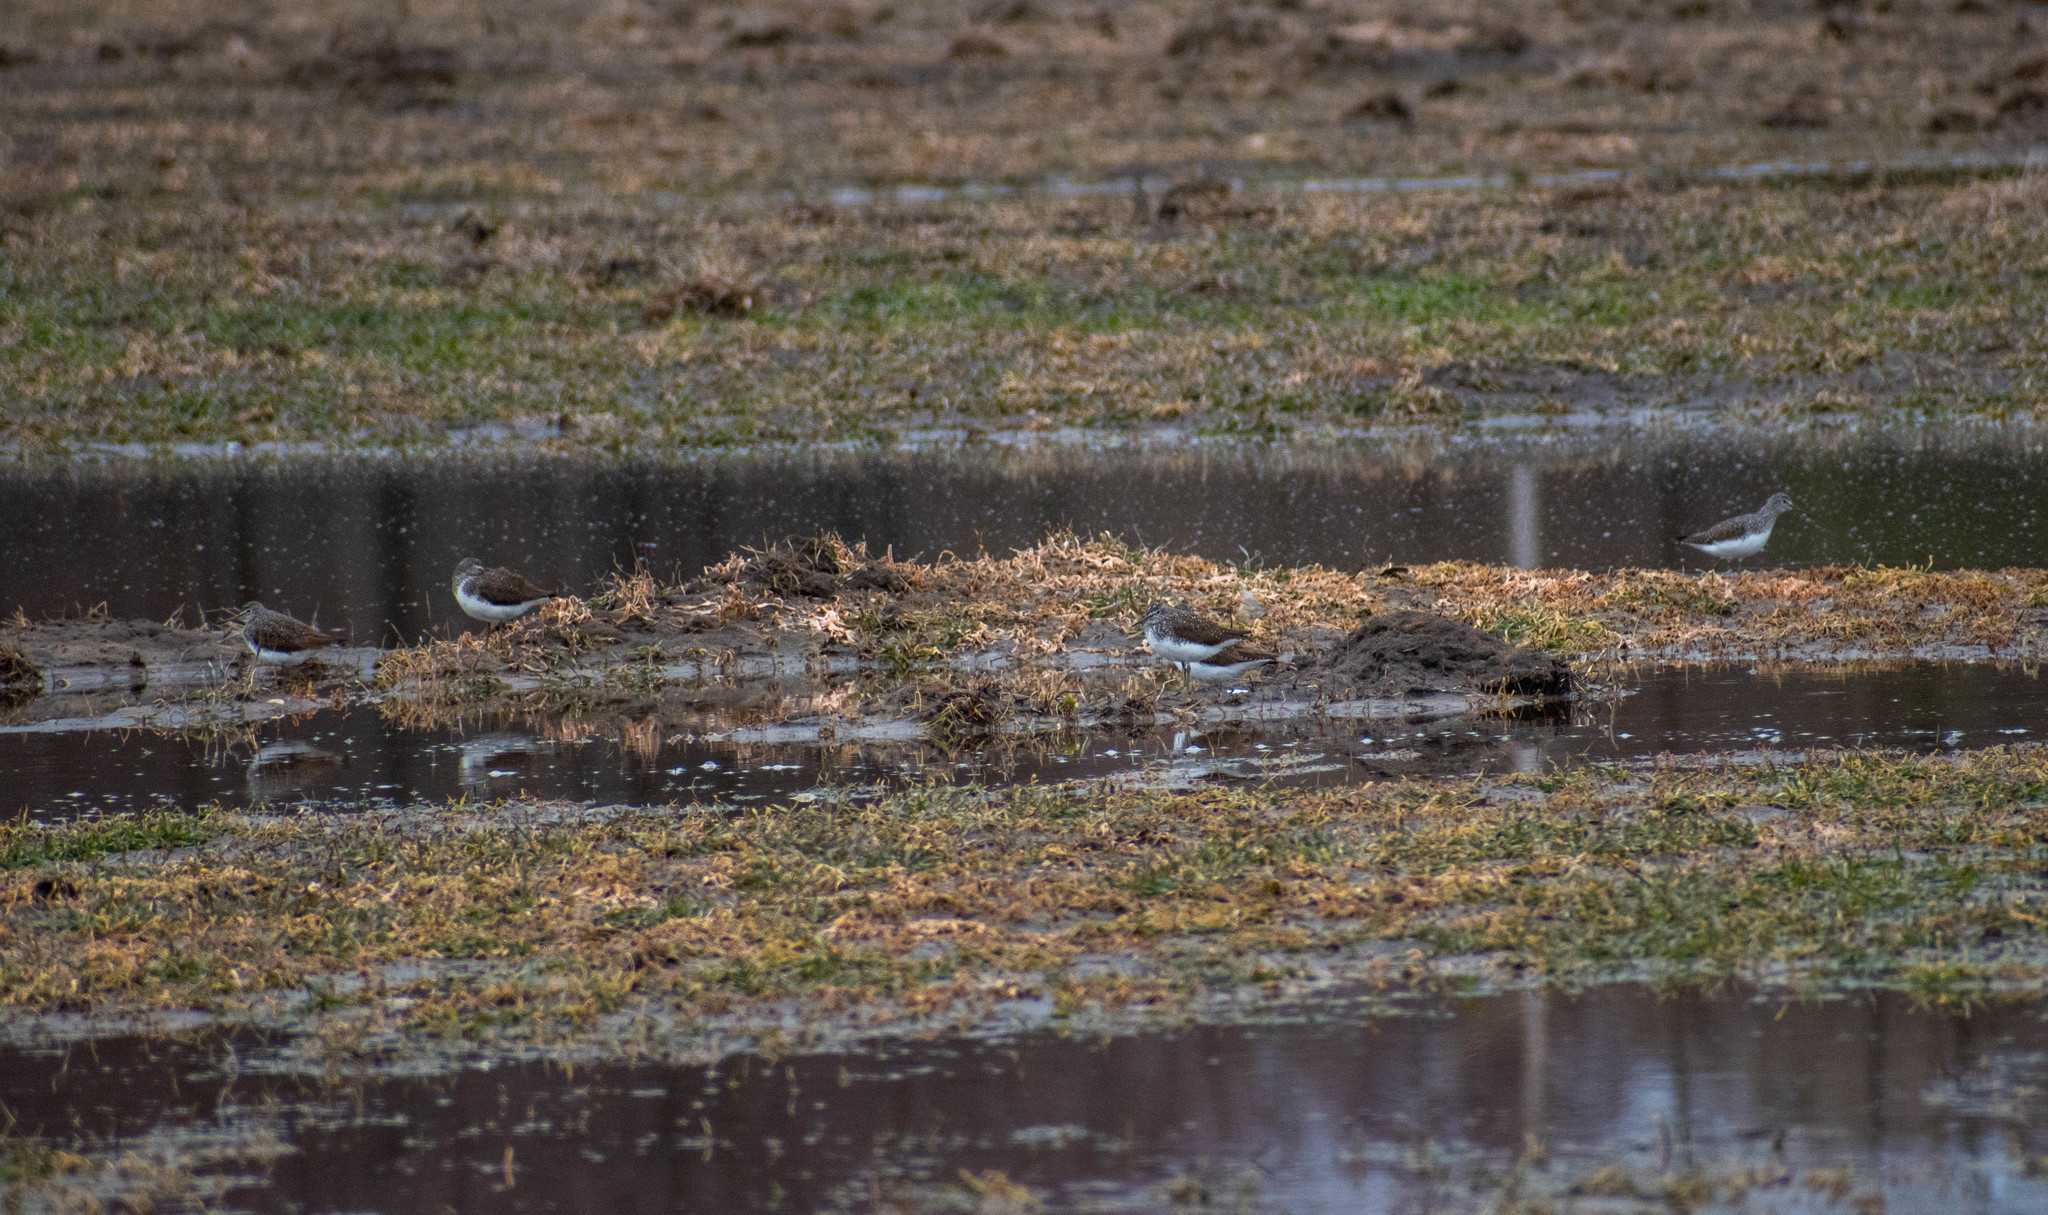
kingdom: Animalia
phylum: Chordata
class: Aves
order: Charadriiformes
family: Scolopacidae
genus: Tringa
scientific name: Tringa ochropus
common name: Green sandpiper
